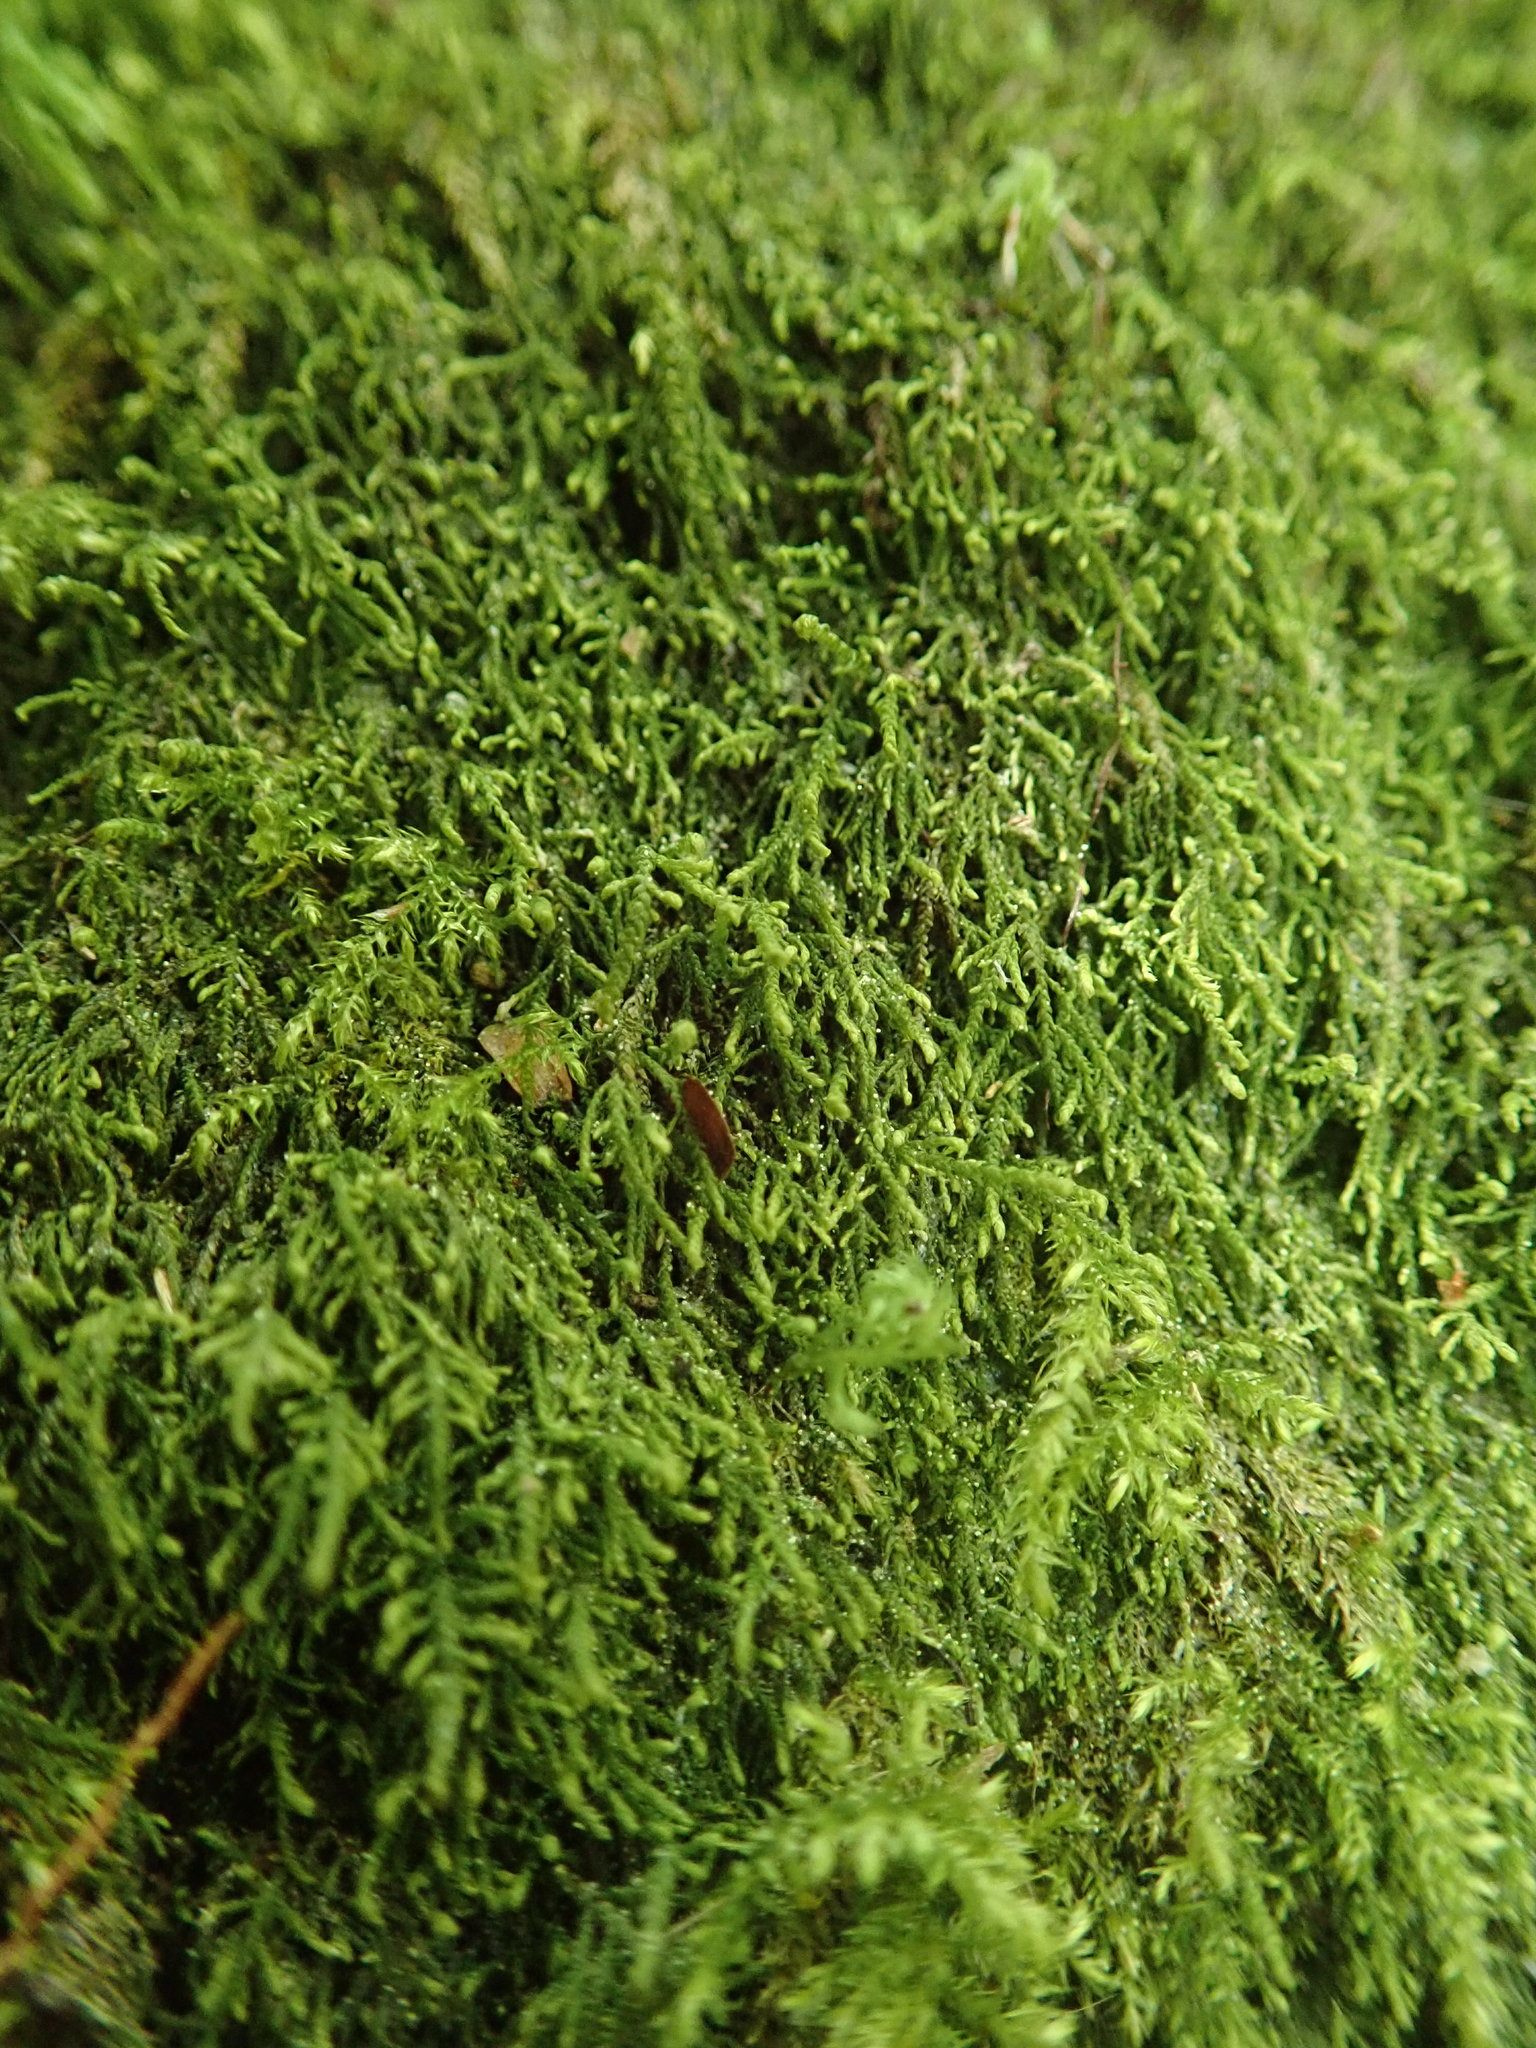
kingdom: Plantae
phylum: Bryophyta
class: Bryopsida
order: Hypnales
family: Lembophyllaceae
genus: Heterocladium
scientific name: Heterocladium macounii
